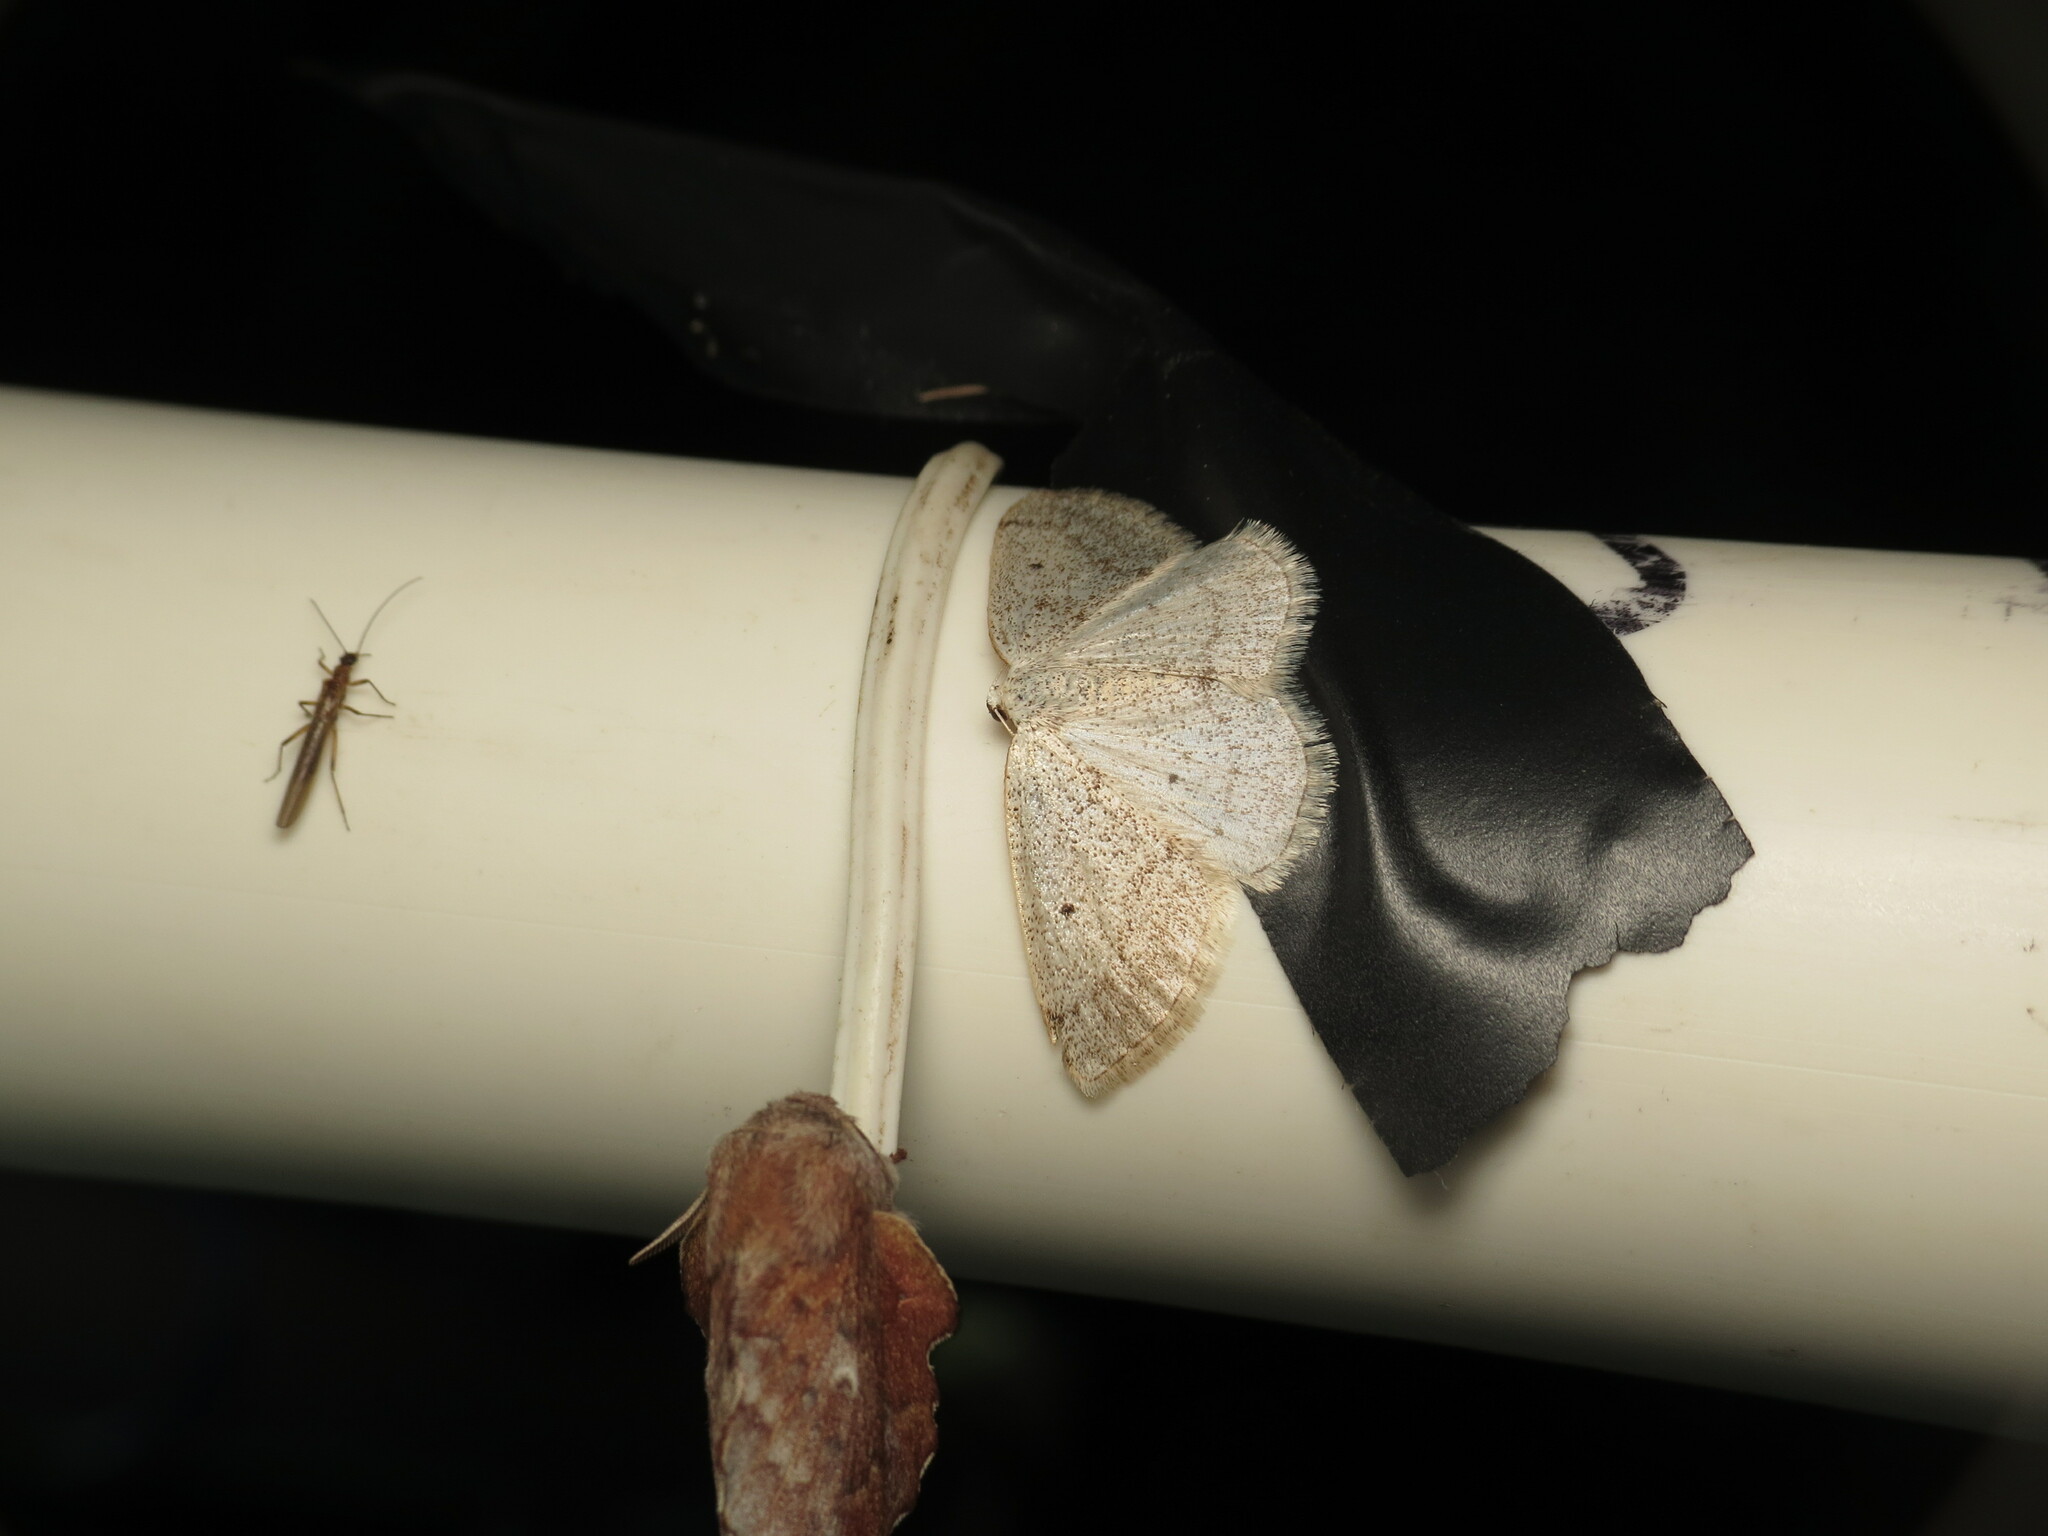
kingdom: Animalia
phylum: Arthropoda
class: Insecta
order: Lepidoptera
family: Geometridae
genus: Lomographa
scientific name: Lomographa glomeraria
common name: Gray spring moth
